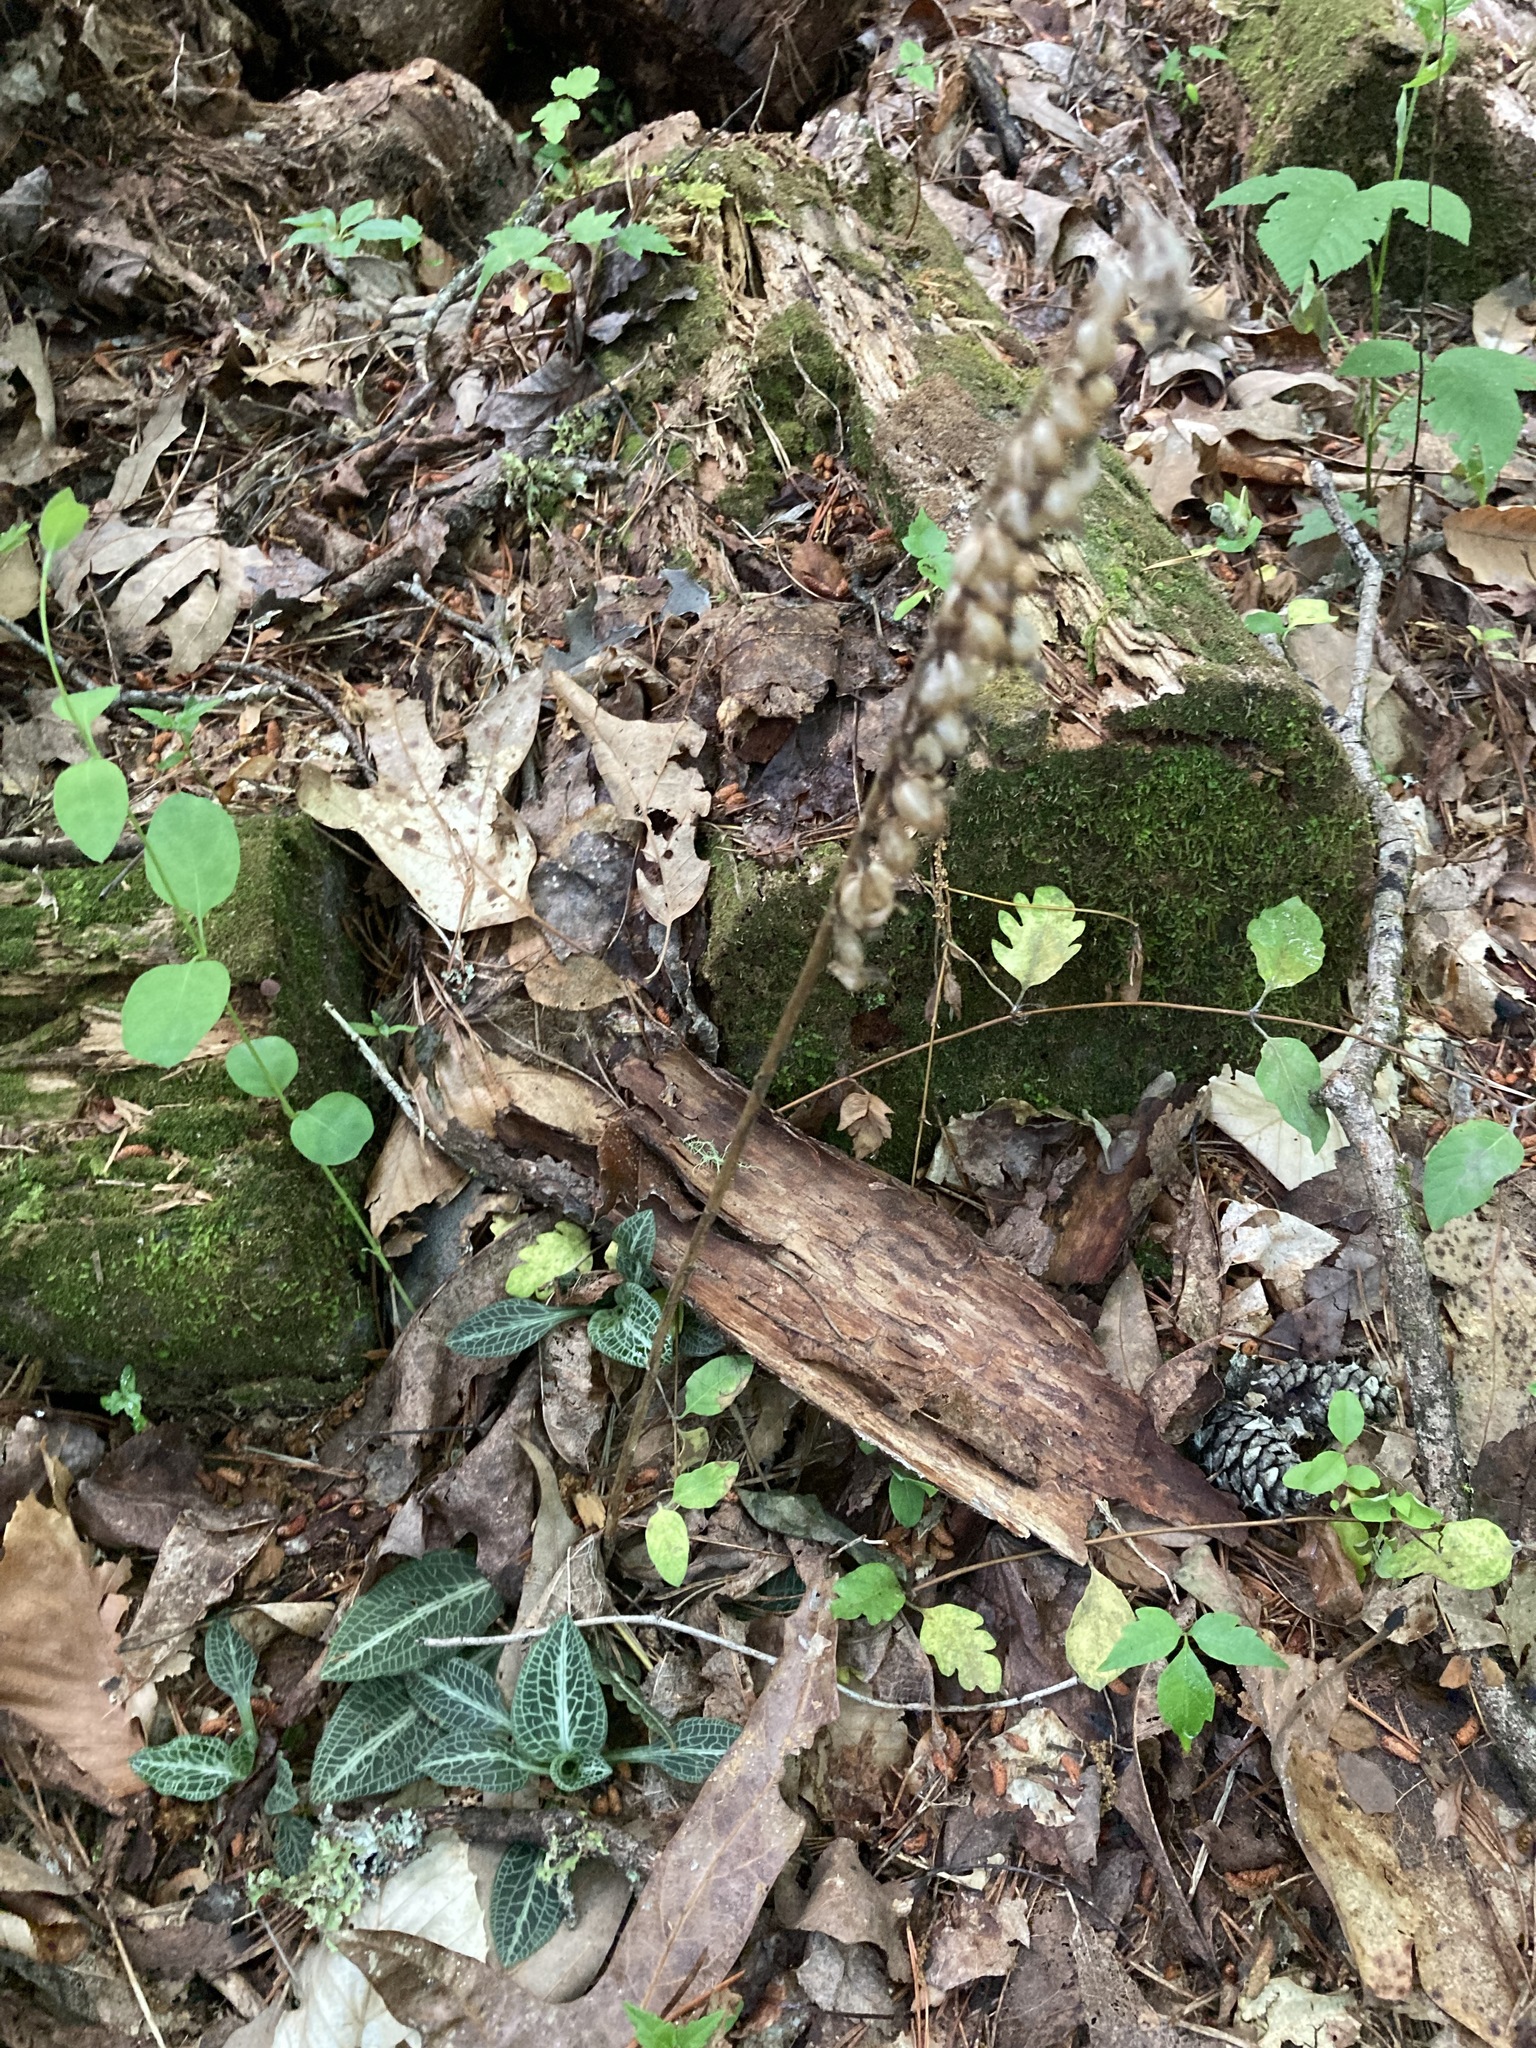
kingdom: Plantae
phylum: Tracheophyta
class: Liliopsida
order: Asparagales
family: Orchidaceae
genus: Goodyera
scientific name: Goodyera pubescens
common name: Downy rattlesnake-plantain
